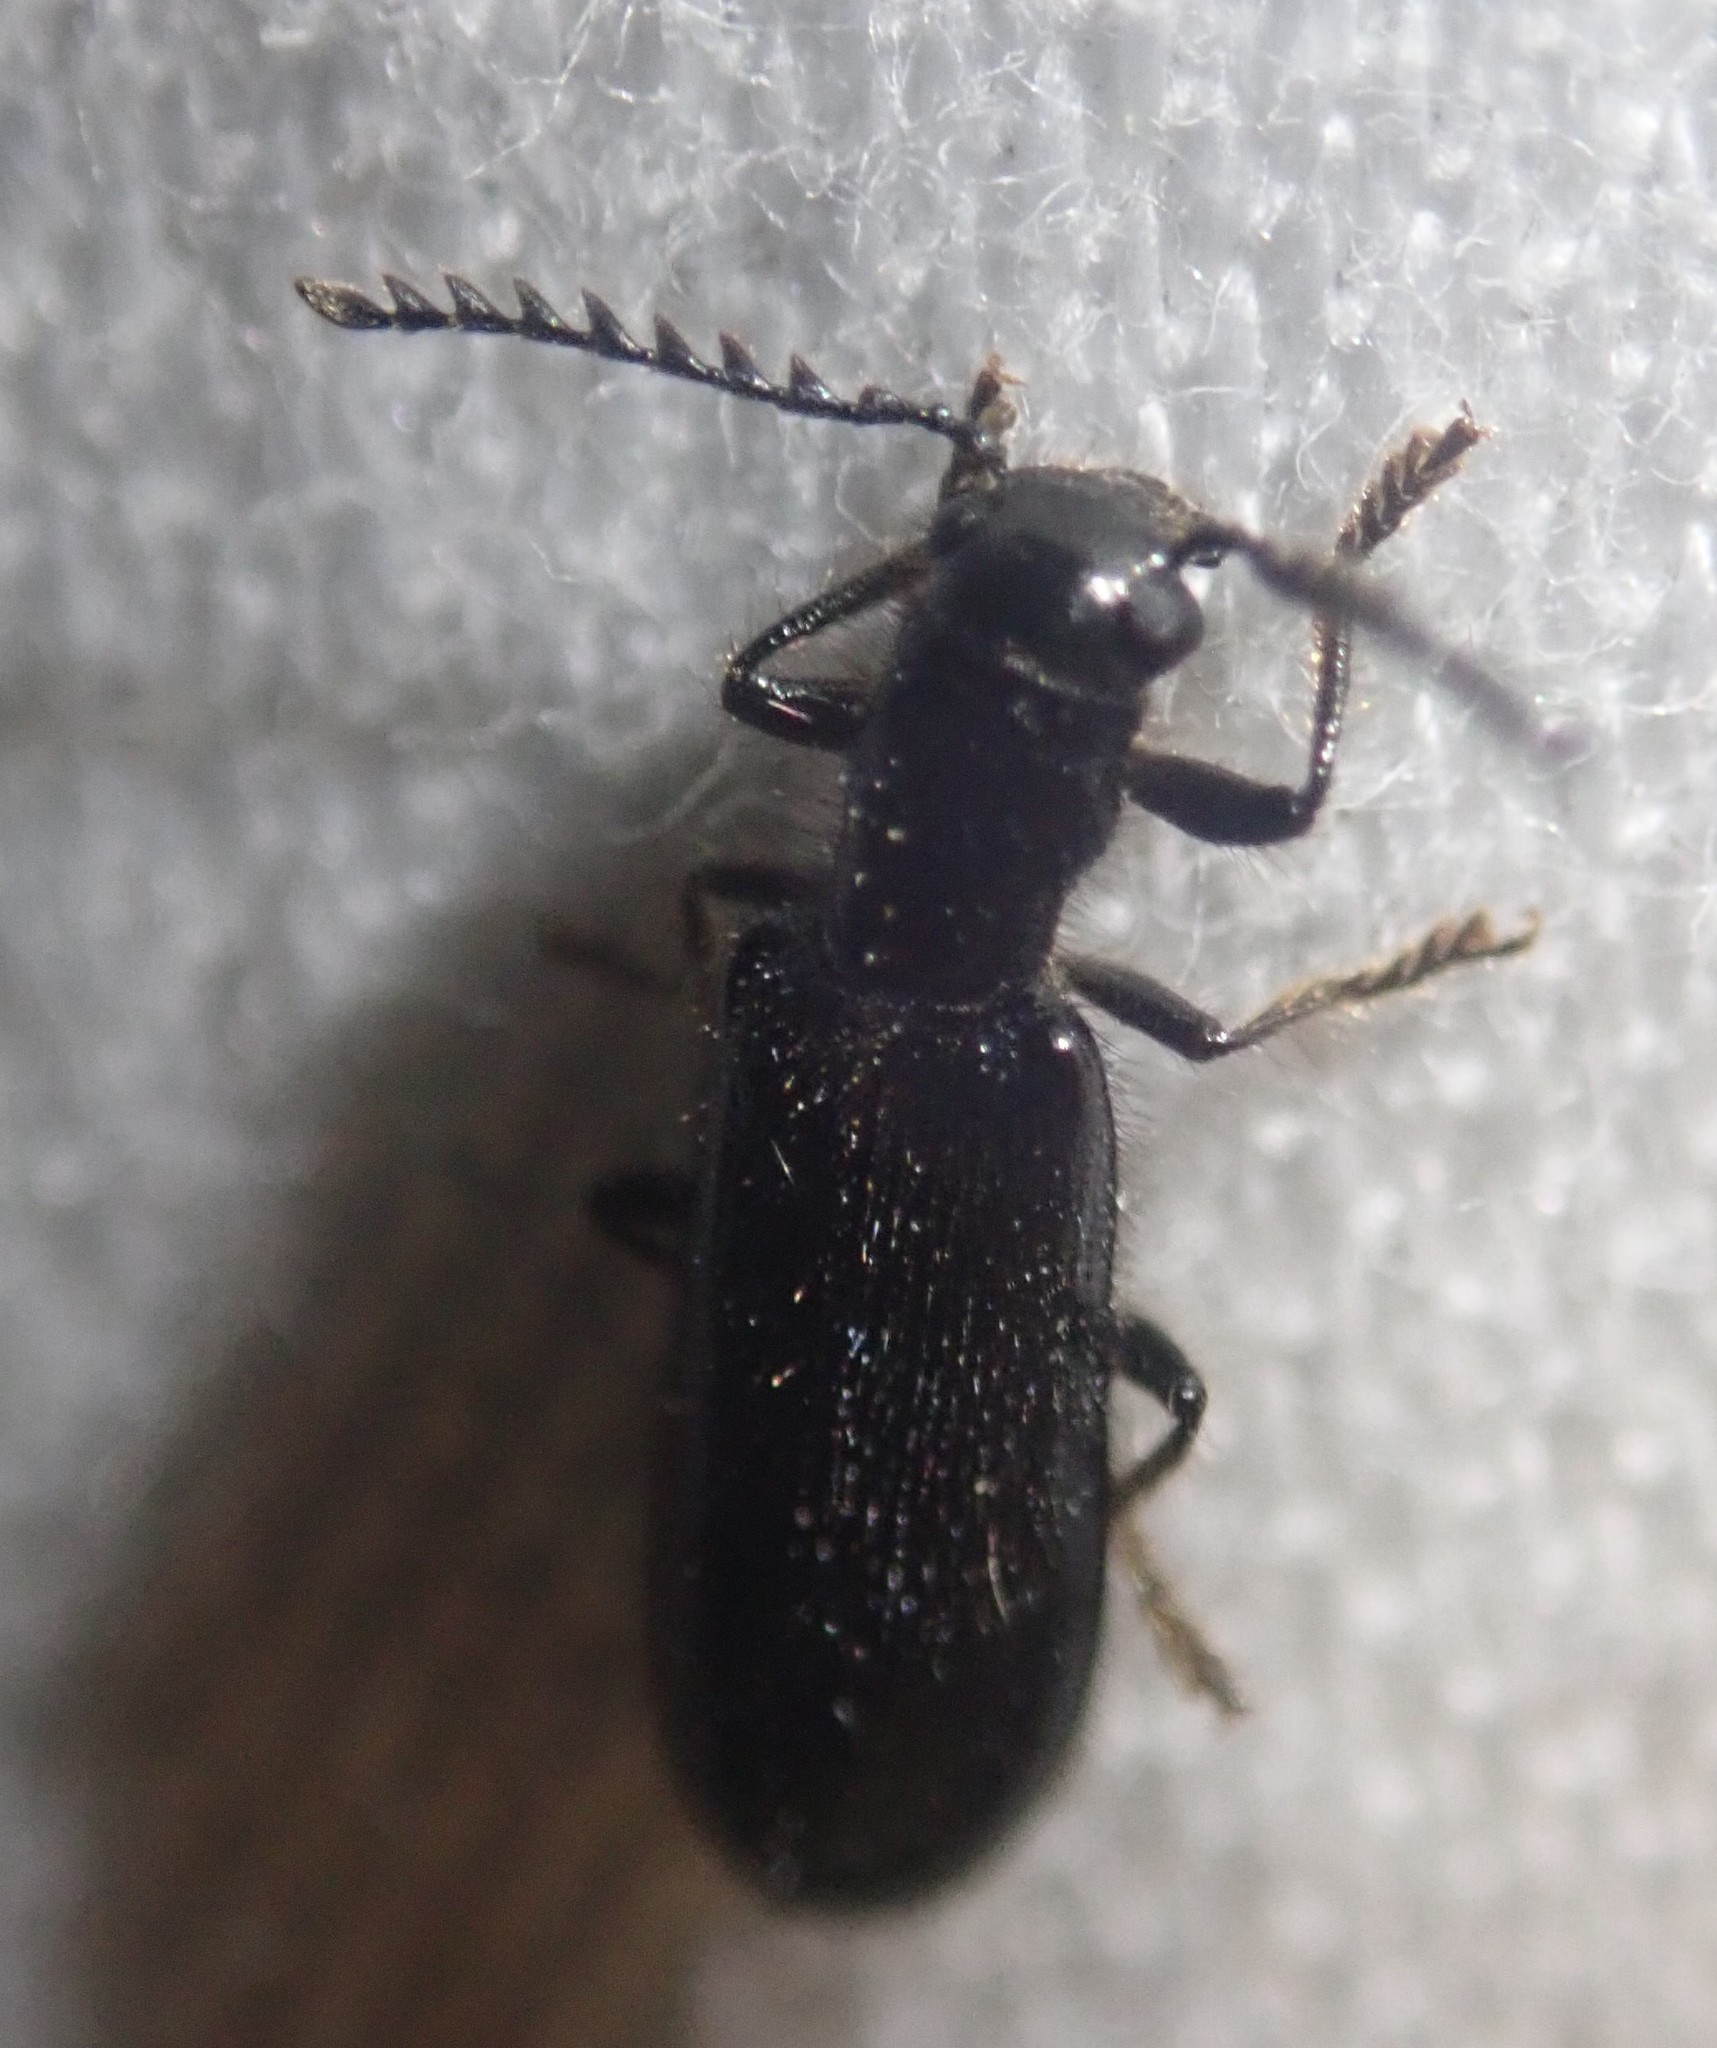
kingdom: Animalia
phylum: Arthropoda
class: Insecta
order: Coleoptera
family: Cleridae
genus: Tillus
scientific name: Tillus elongatus
